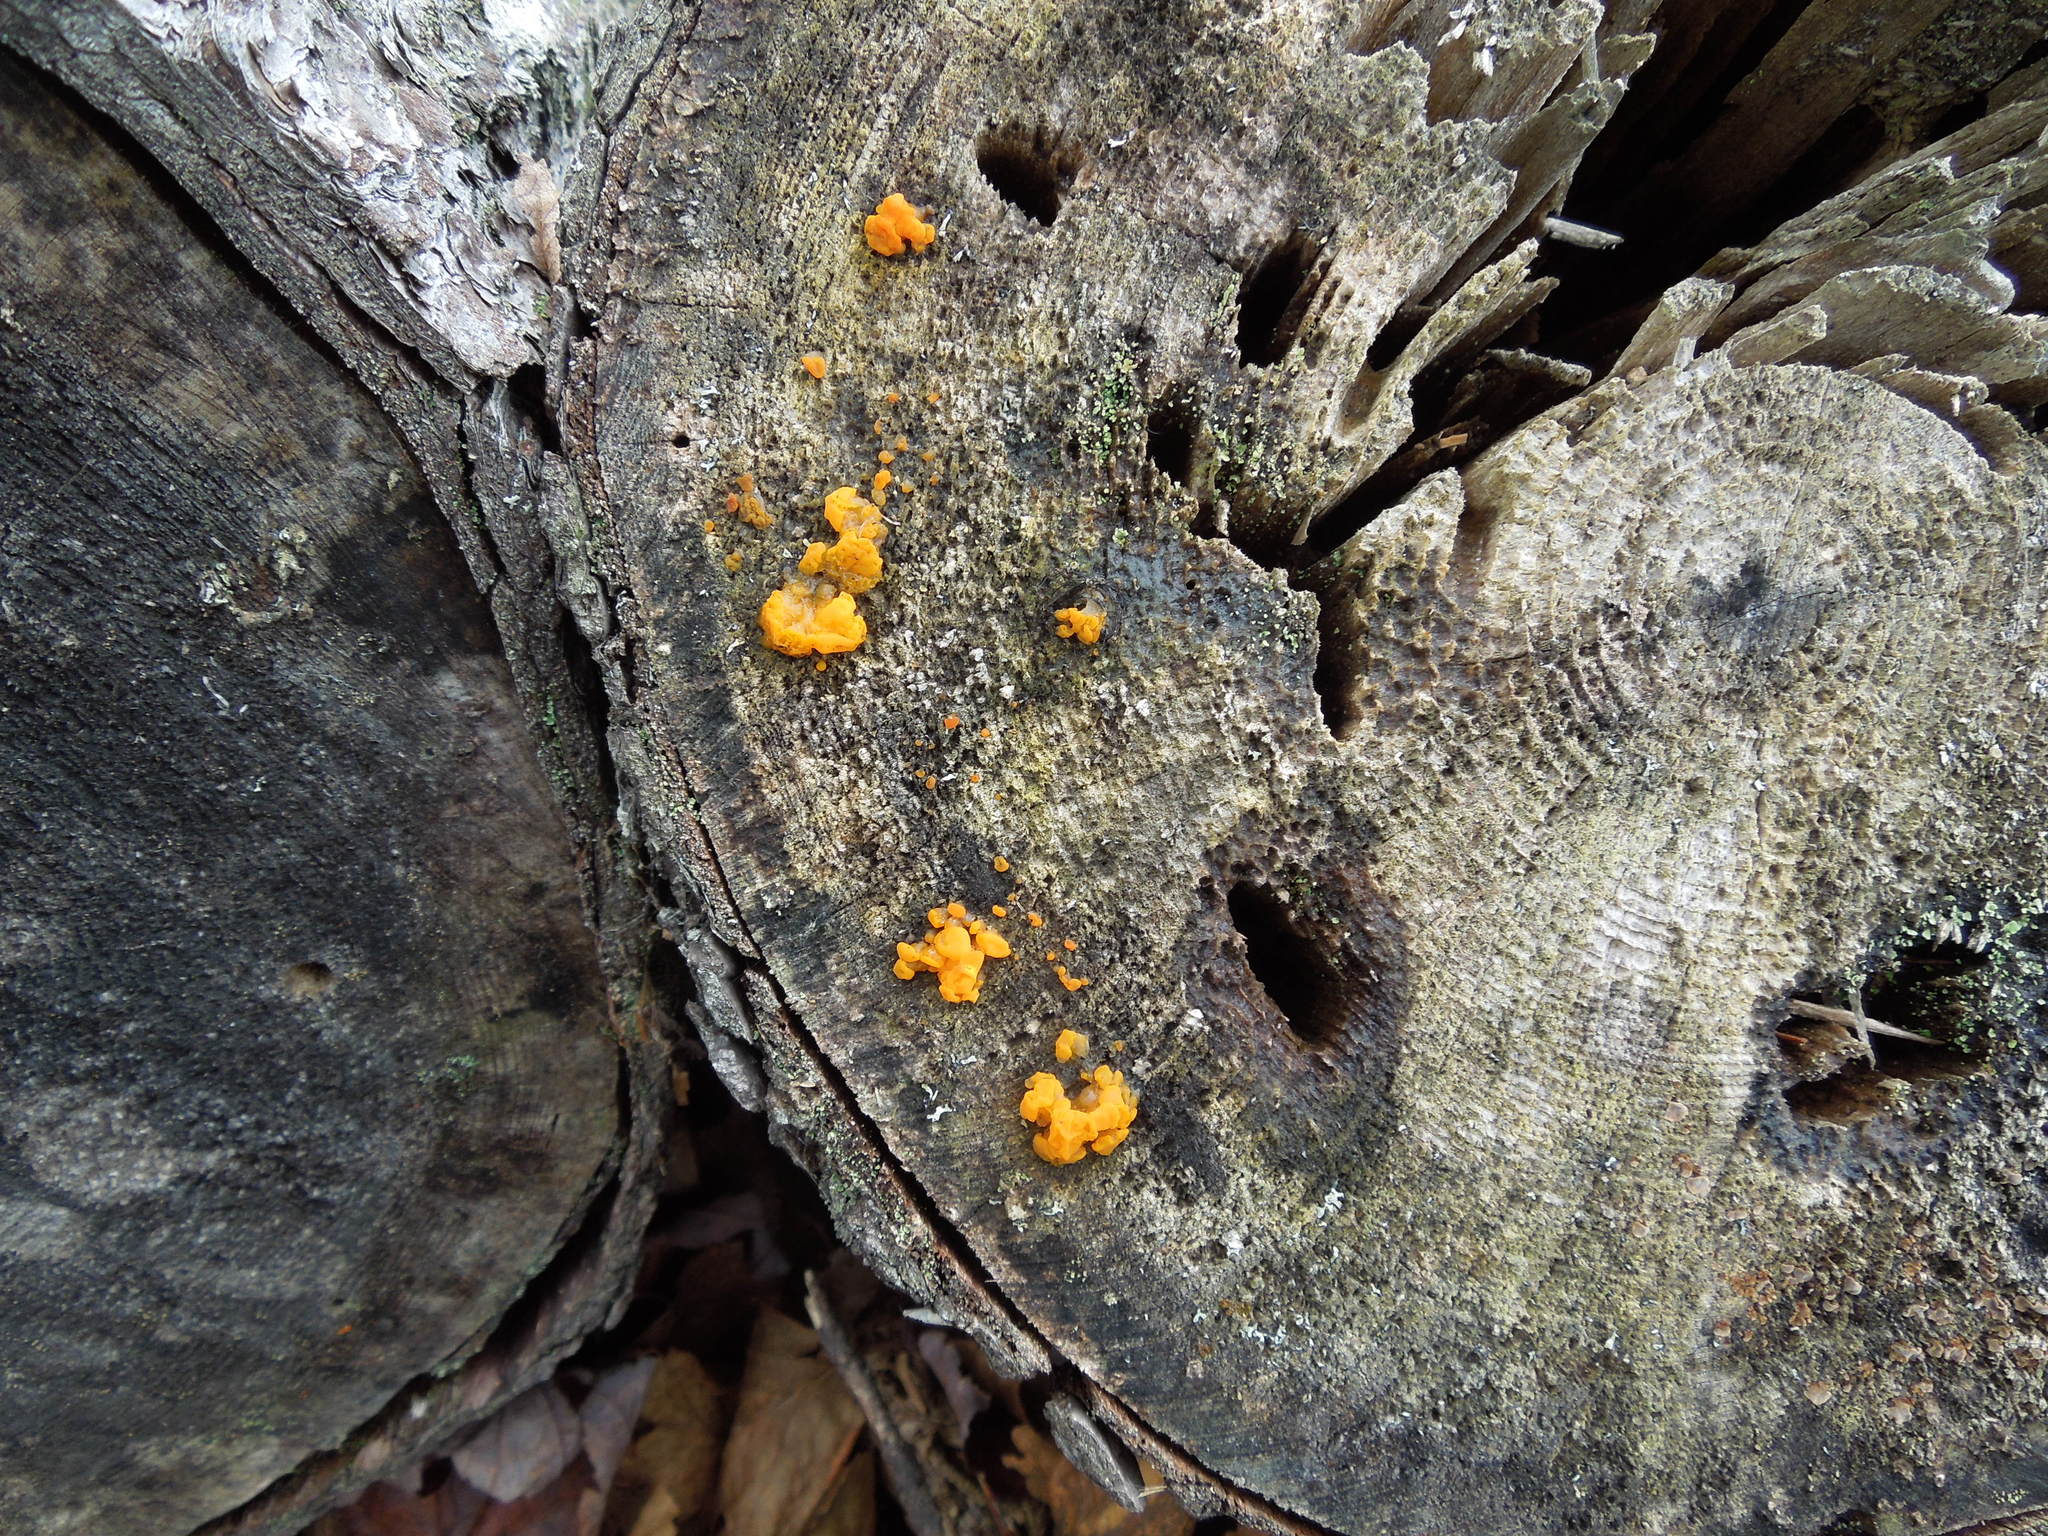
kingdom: Fungi
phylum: Basidiomycota
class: Dacrymycetes
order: Dacrymycetales
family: Dacrymycetaceae
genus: Dacrymyces
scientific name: Dacrymyces chrysospermus
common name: Orange jelly spot
